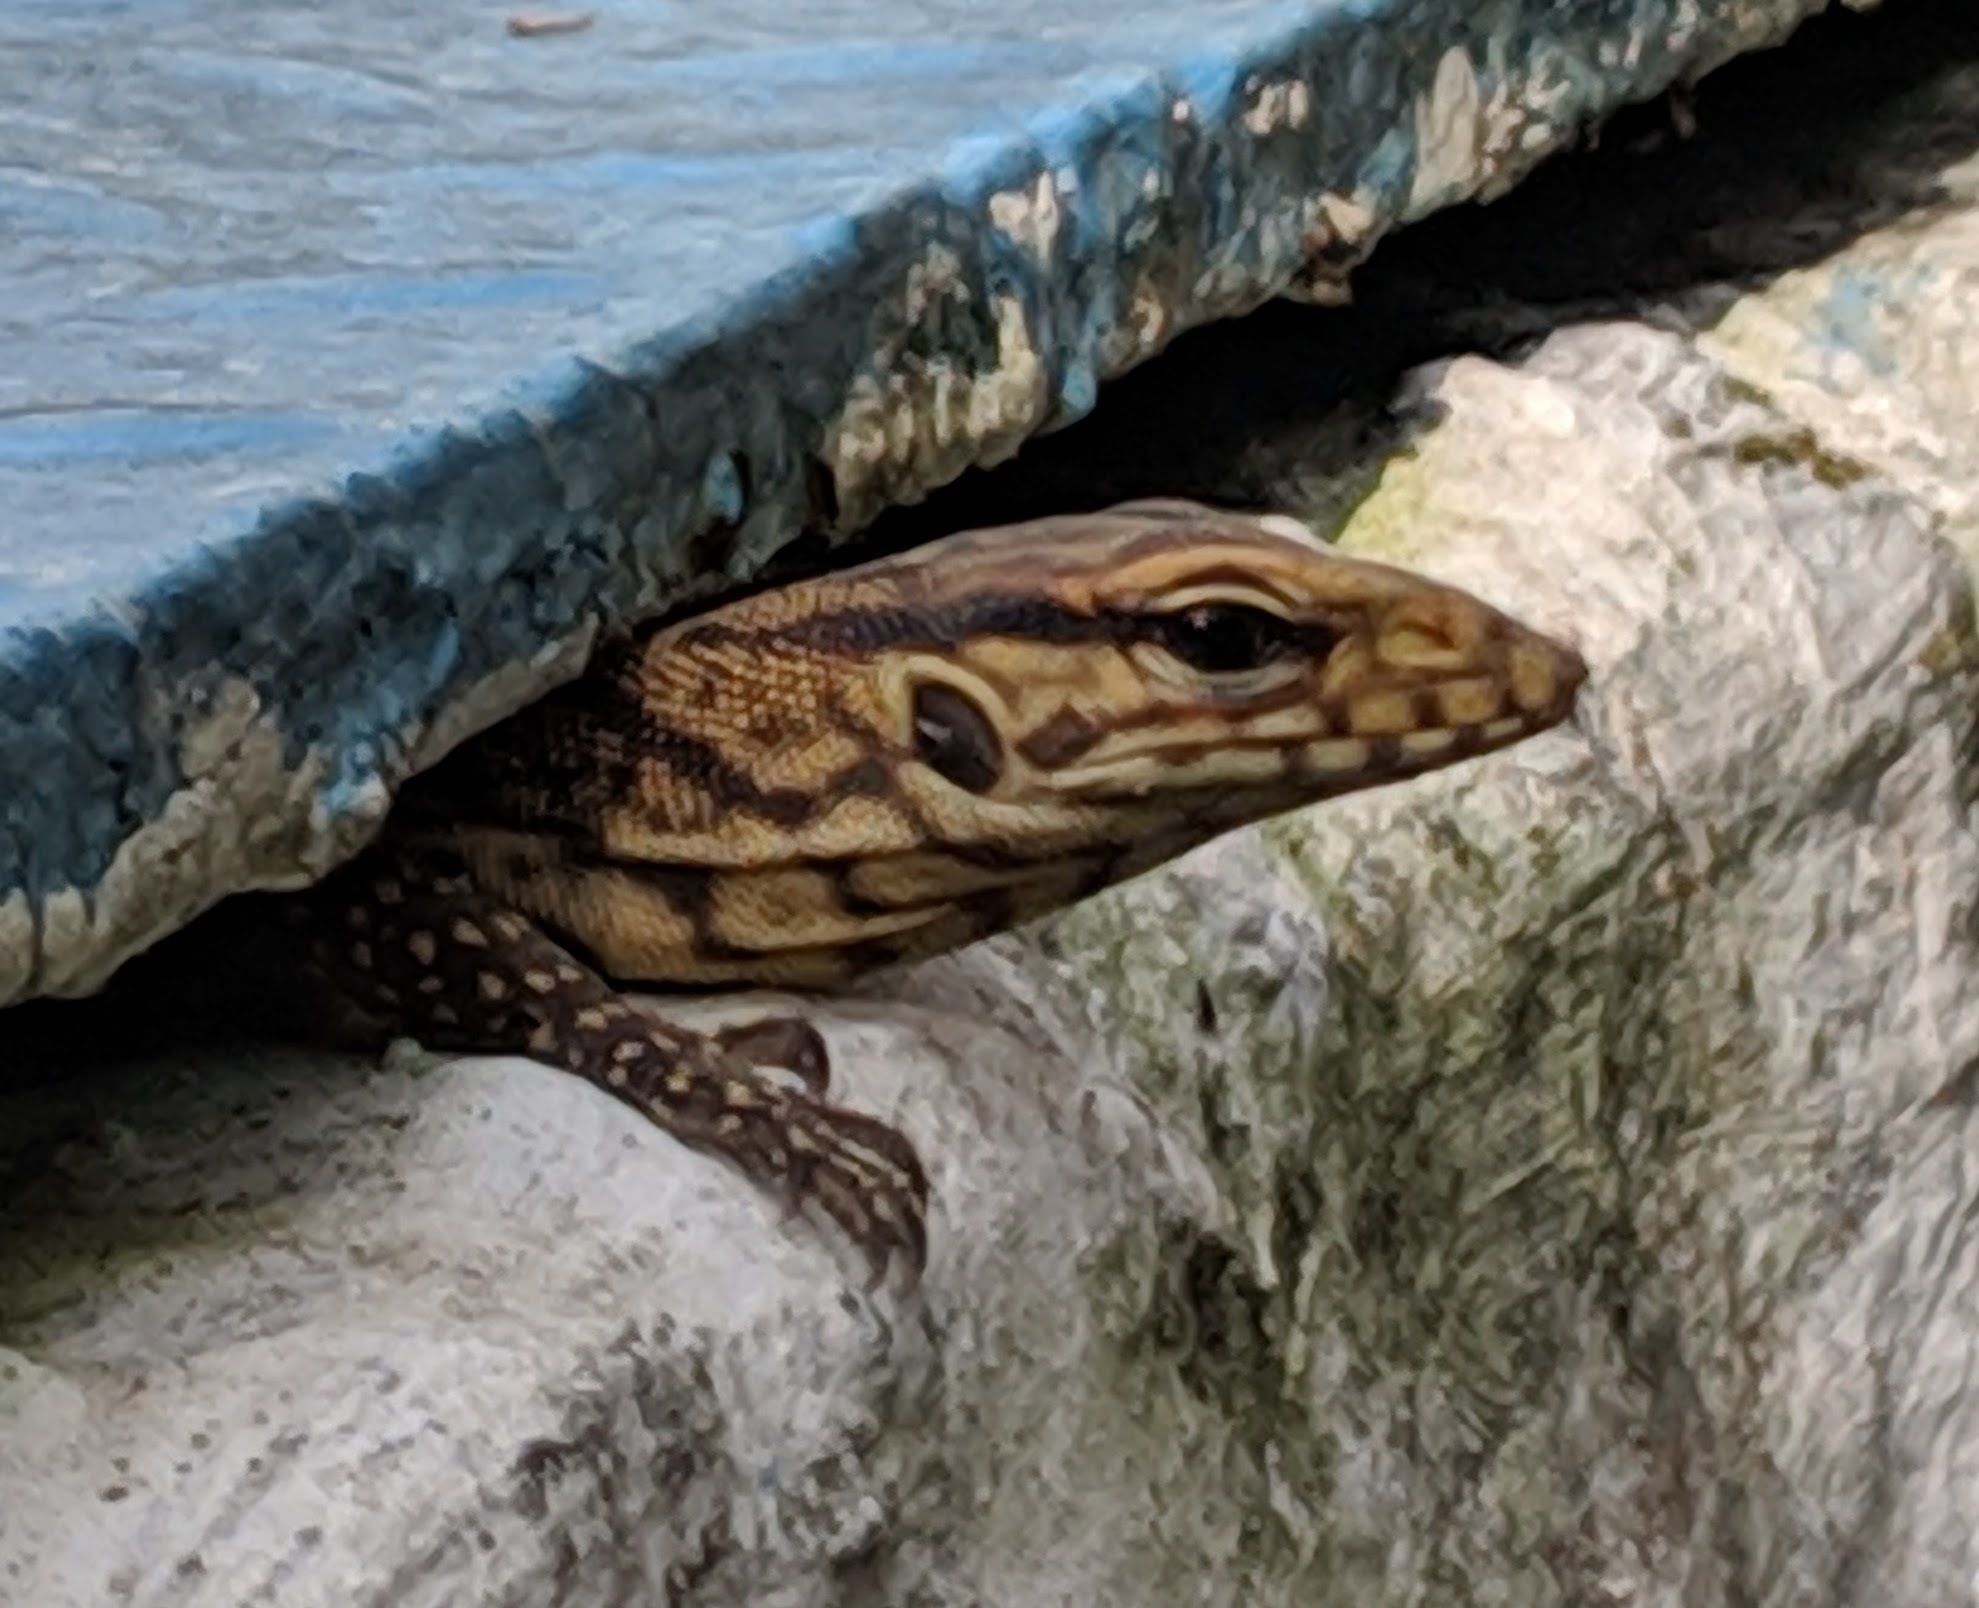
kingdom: Animalia
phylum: Chordata
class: Squamata
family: Varanidae
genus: Varanus
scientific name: Varanus nebulosus
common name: Clouded monitor
